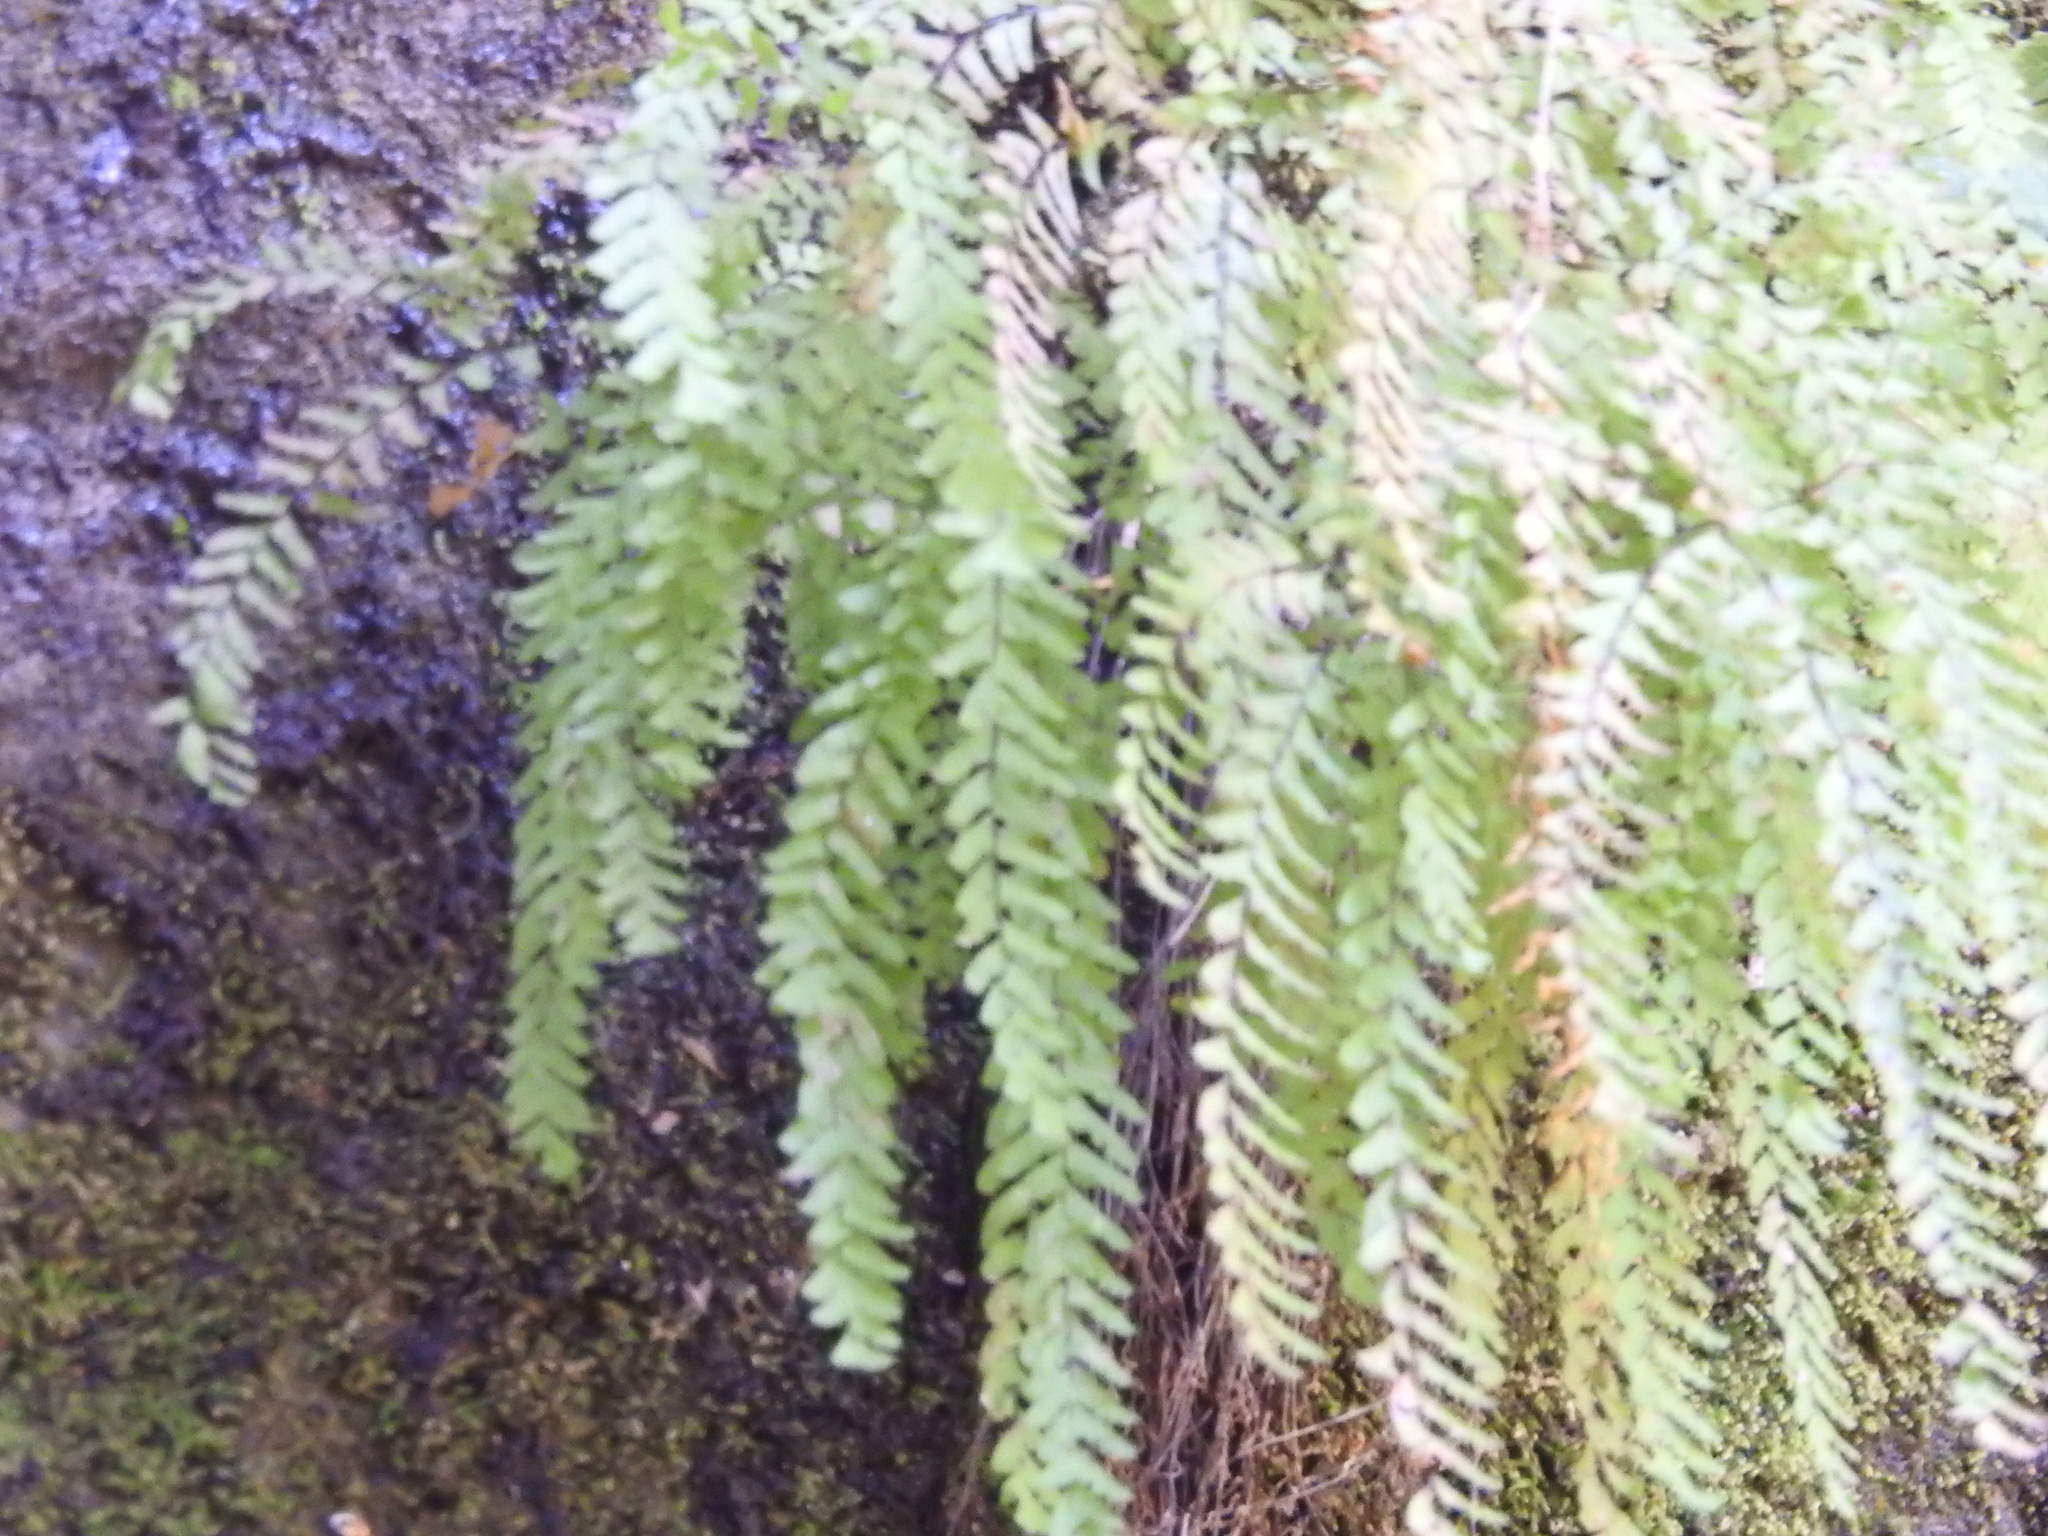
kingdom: Plantae
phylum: Tracheophyta
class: Polypodiopsida
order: Polypodiales
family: Pteridaceae
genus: Adiantum
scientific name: Adiantum aleuticum
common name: Aleutian maidenhair fern
